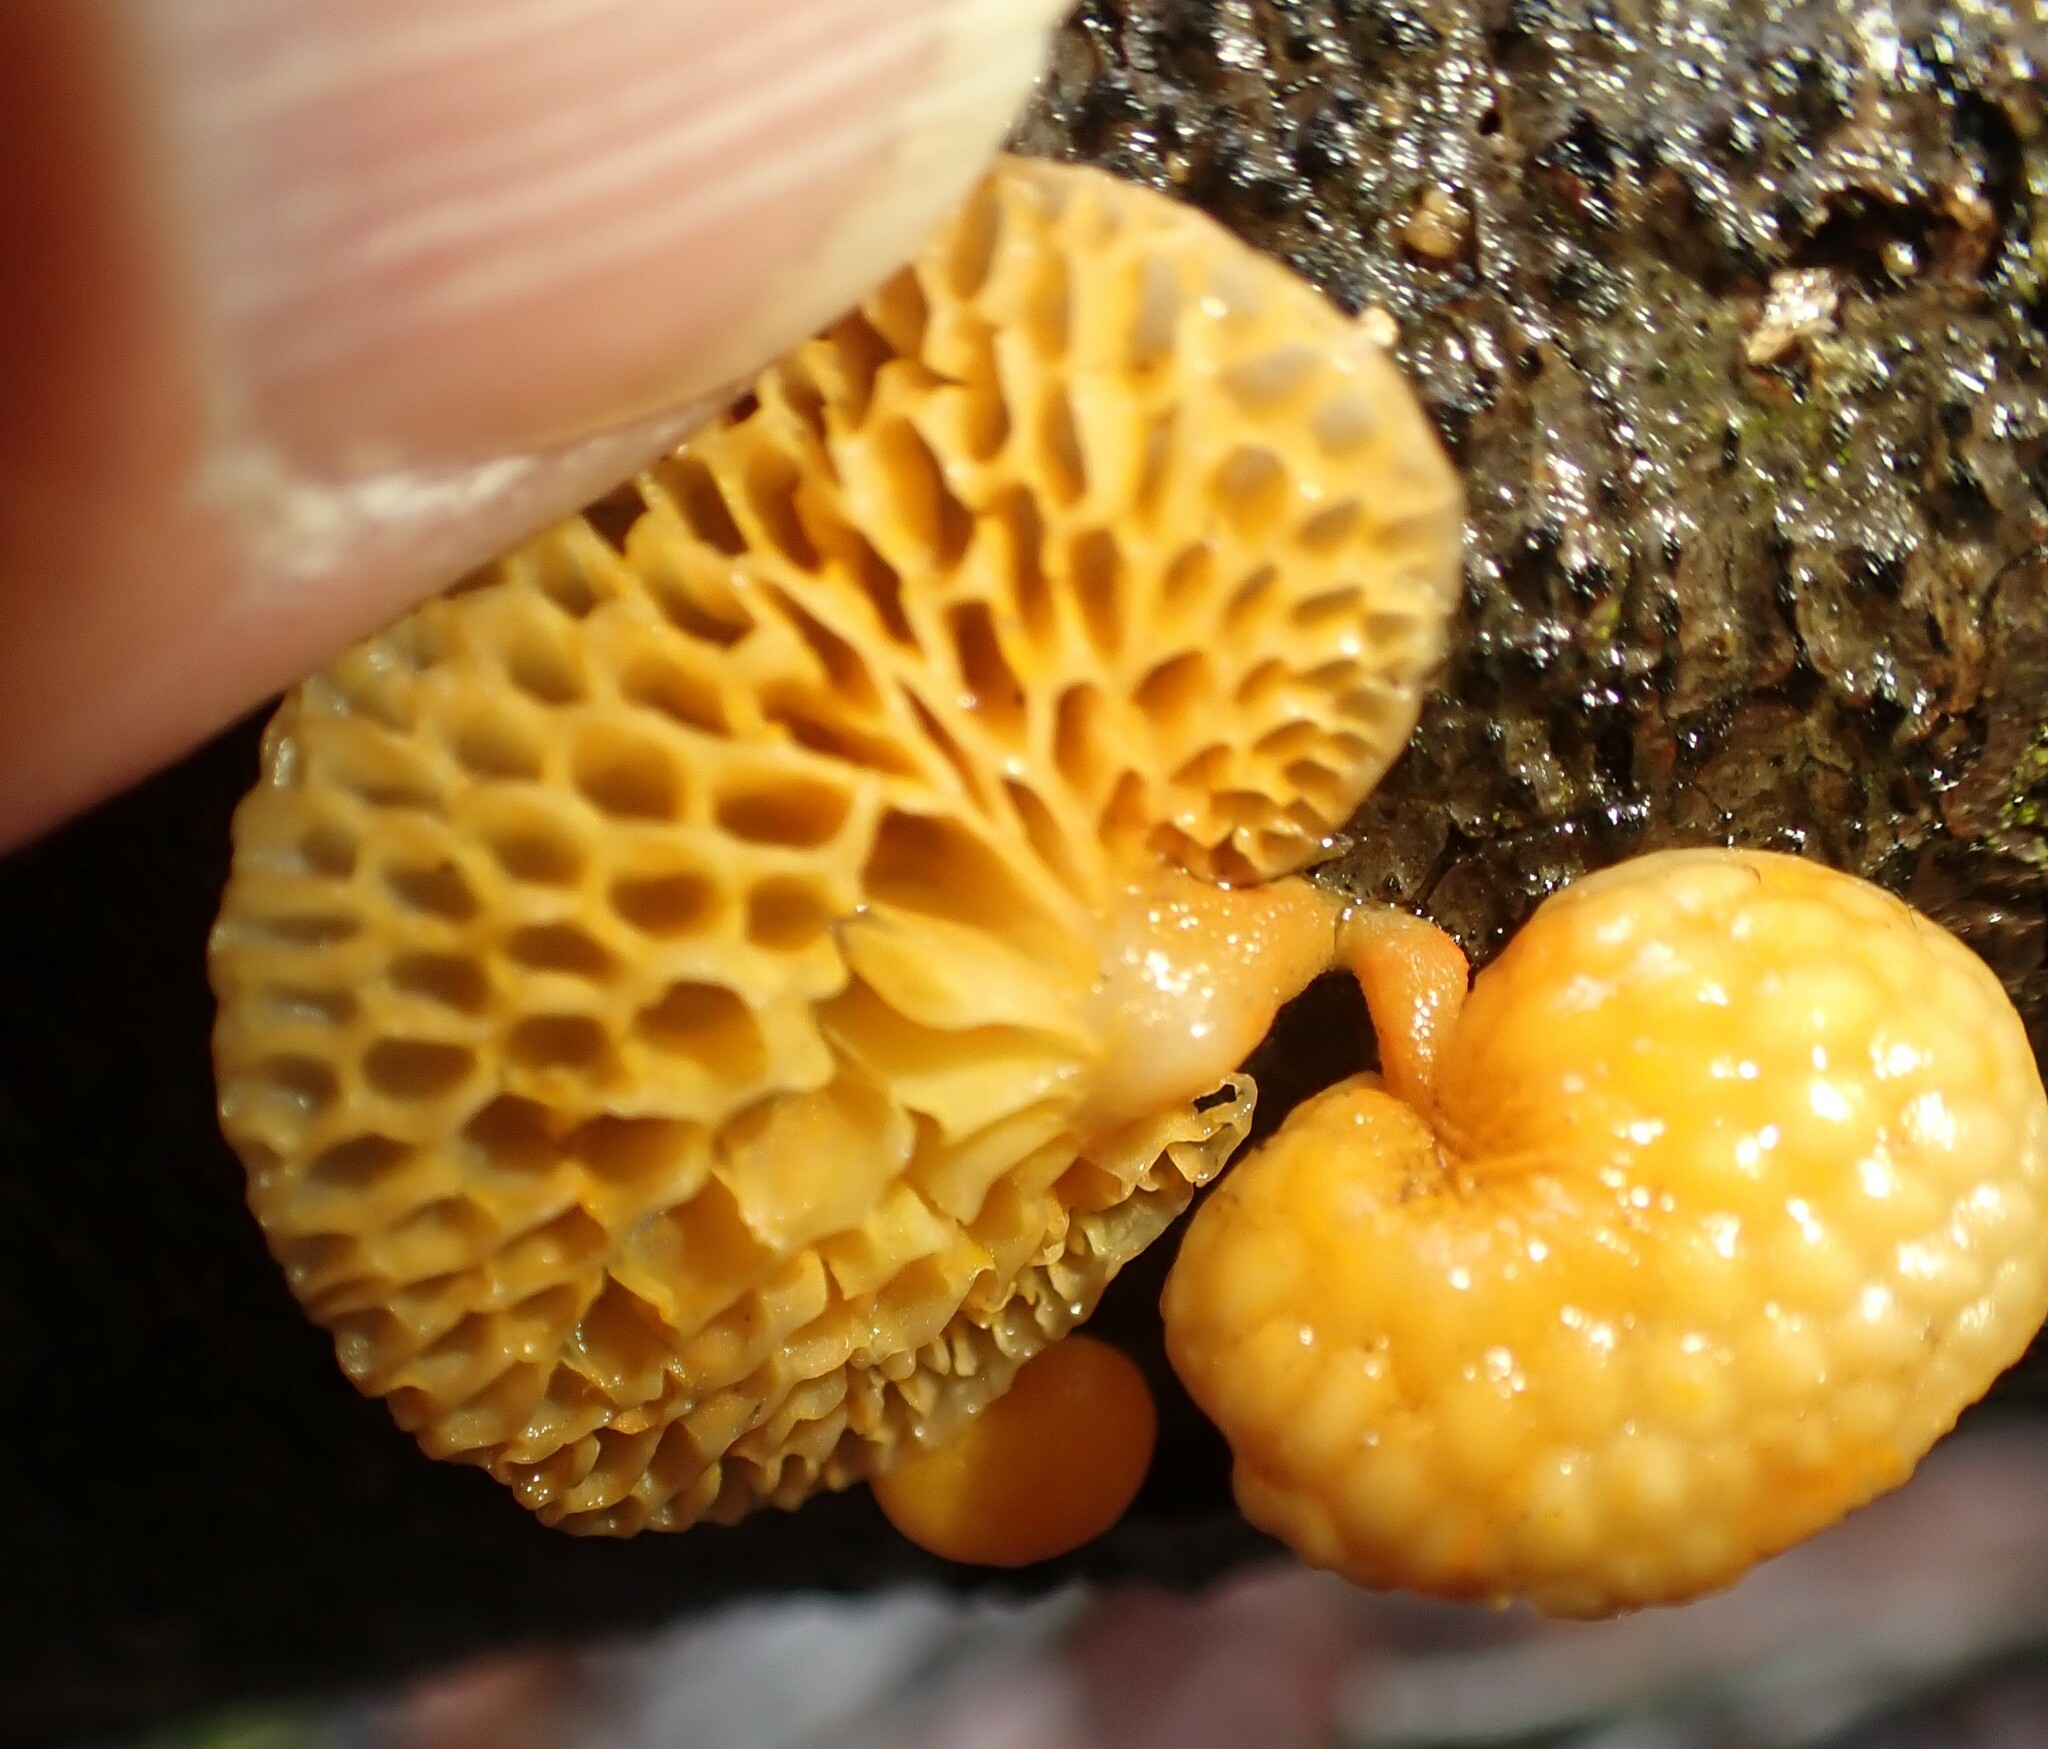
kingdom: Fungi
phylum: Basidiomycota
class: Agaricomycetes
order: Agaricales
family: Mycenaceae
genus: Favolaschia
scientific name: Favolaschia claudopus
